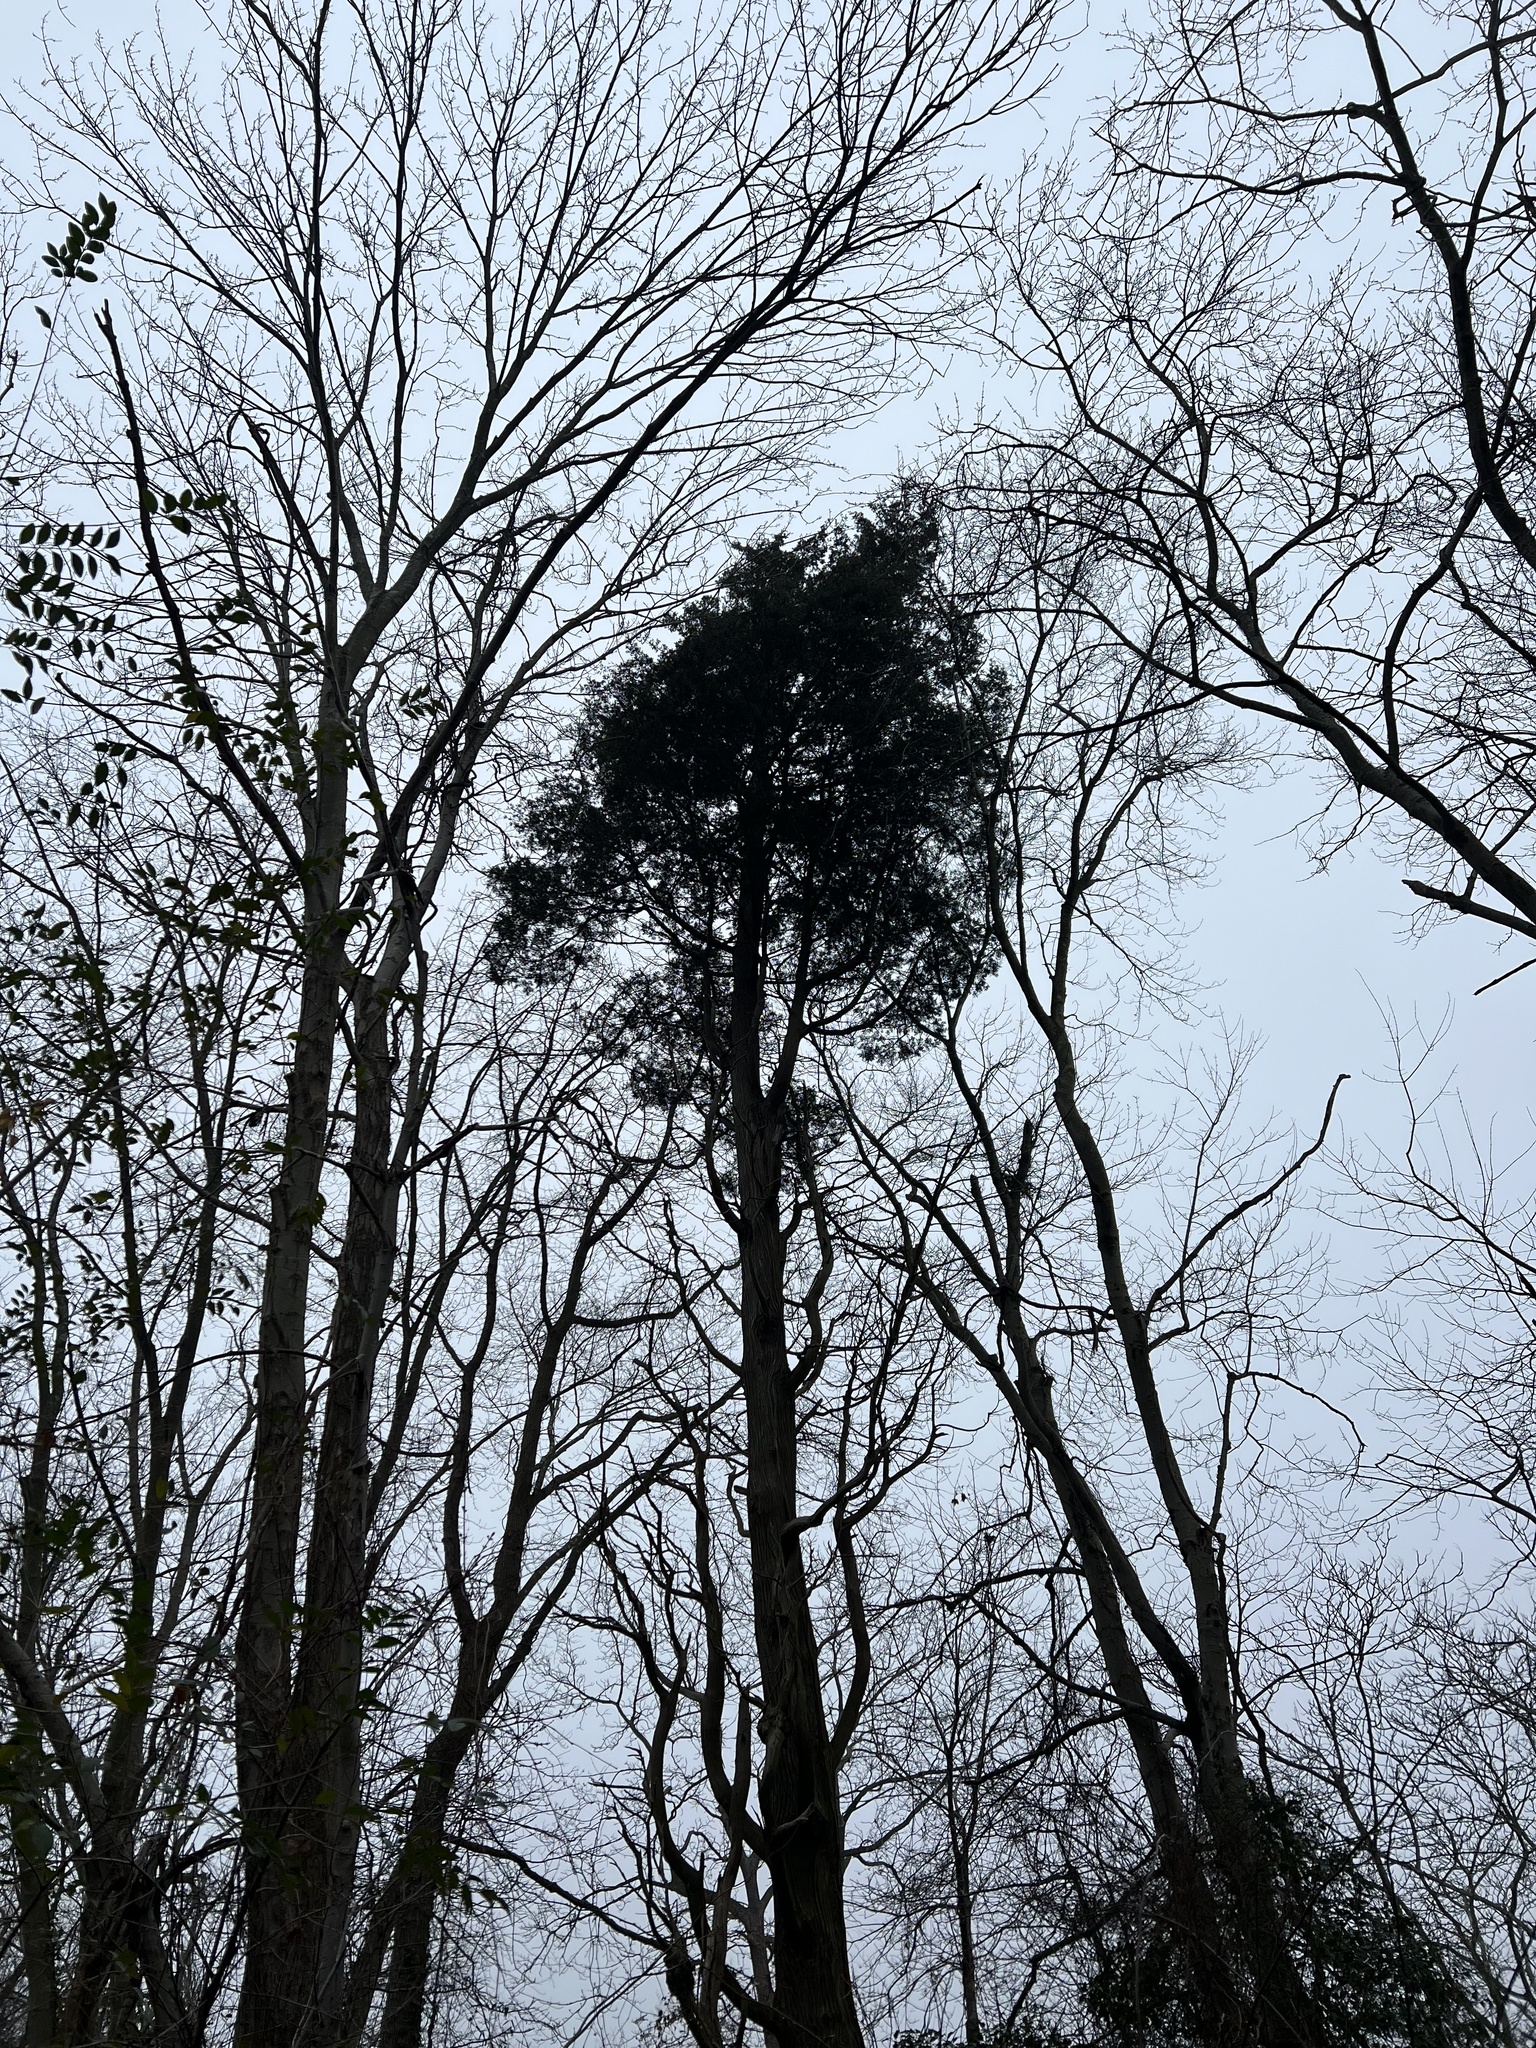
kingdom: Plantae
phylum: Tracheophyta
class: Pinopsida
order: Pinales
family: Cupressaceae
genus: Chamaecyparis
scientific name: Chamaecyparis thyoides
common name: Atlantic white cedar
